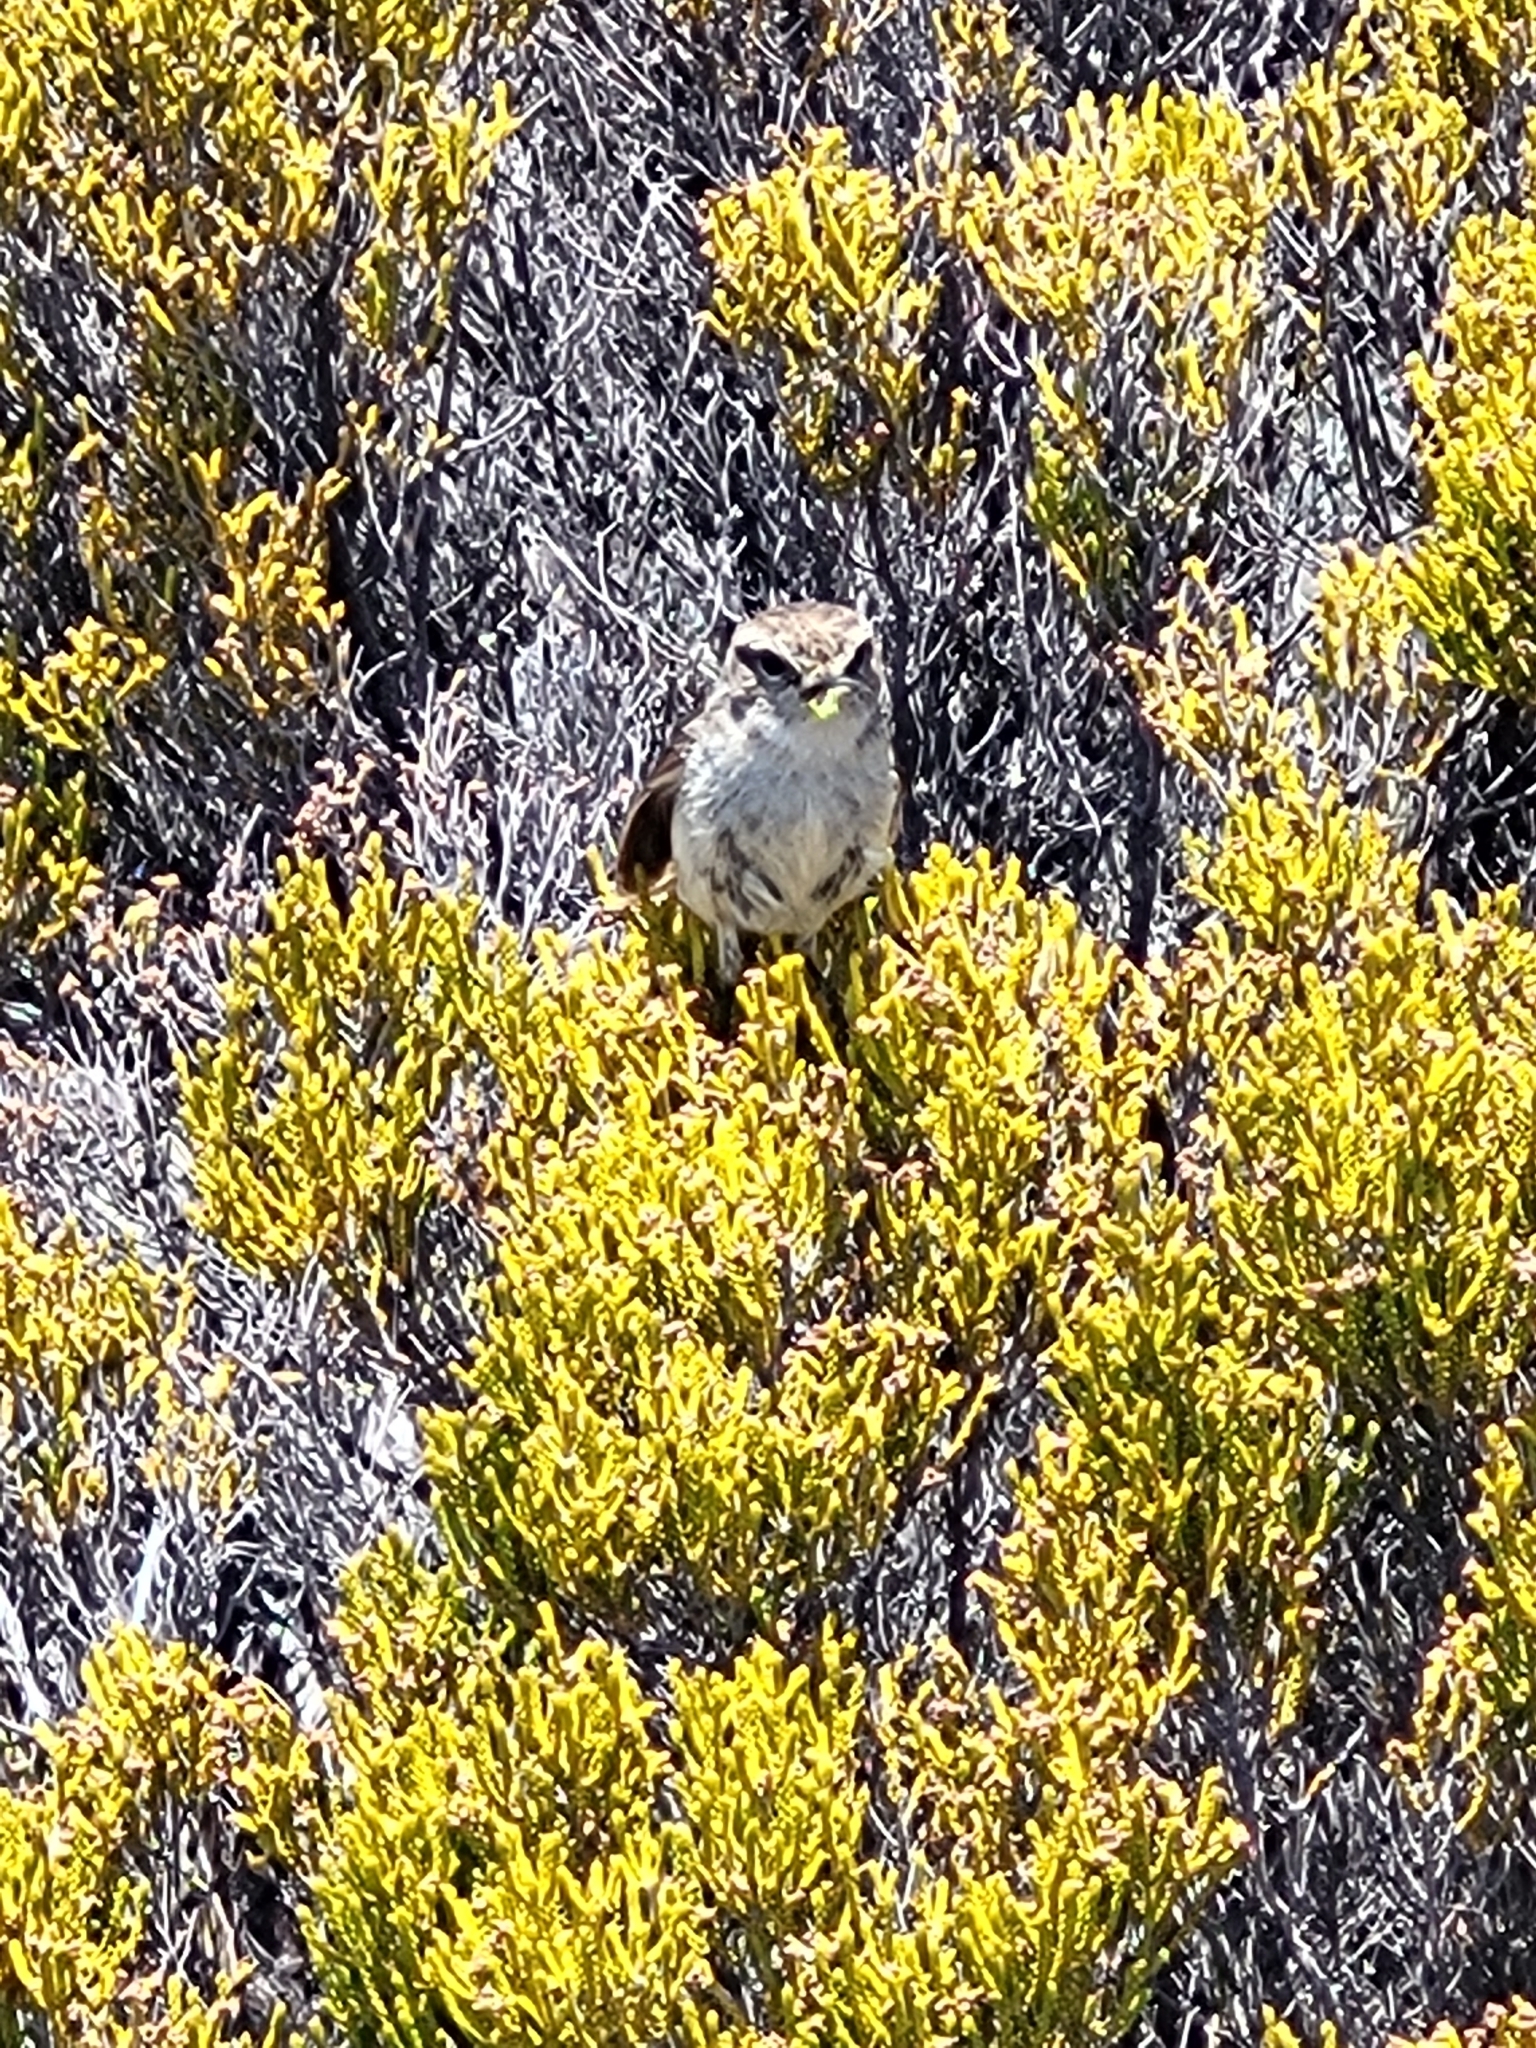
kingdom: Animalia
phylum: Chordata
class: Aves
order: Passeriformes
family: Muscicapidae
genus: Saxicola
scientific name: Saxicola tectes
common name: Reunion stonechat
